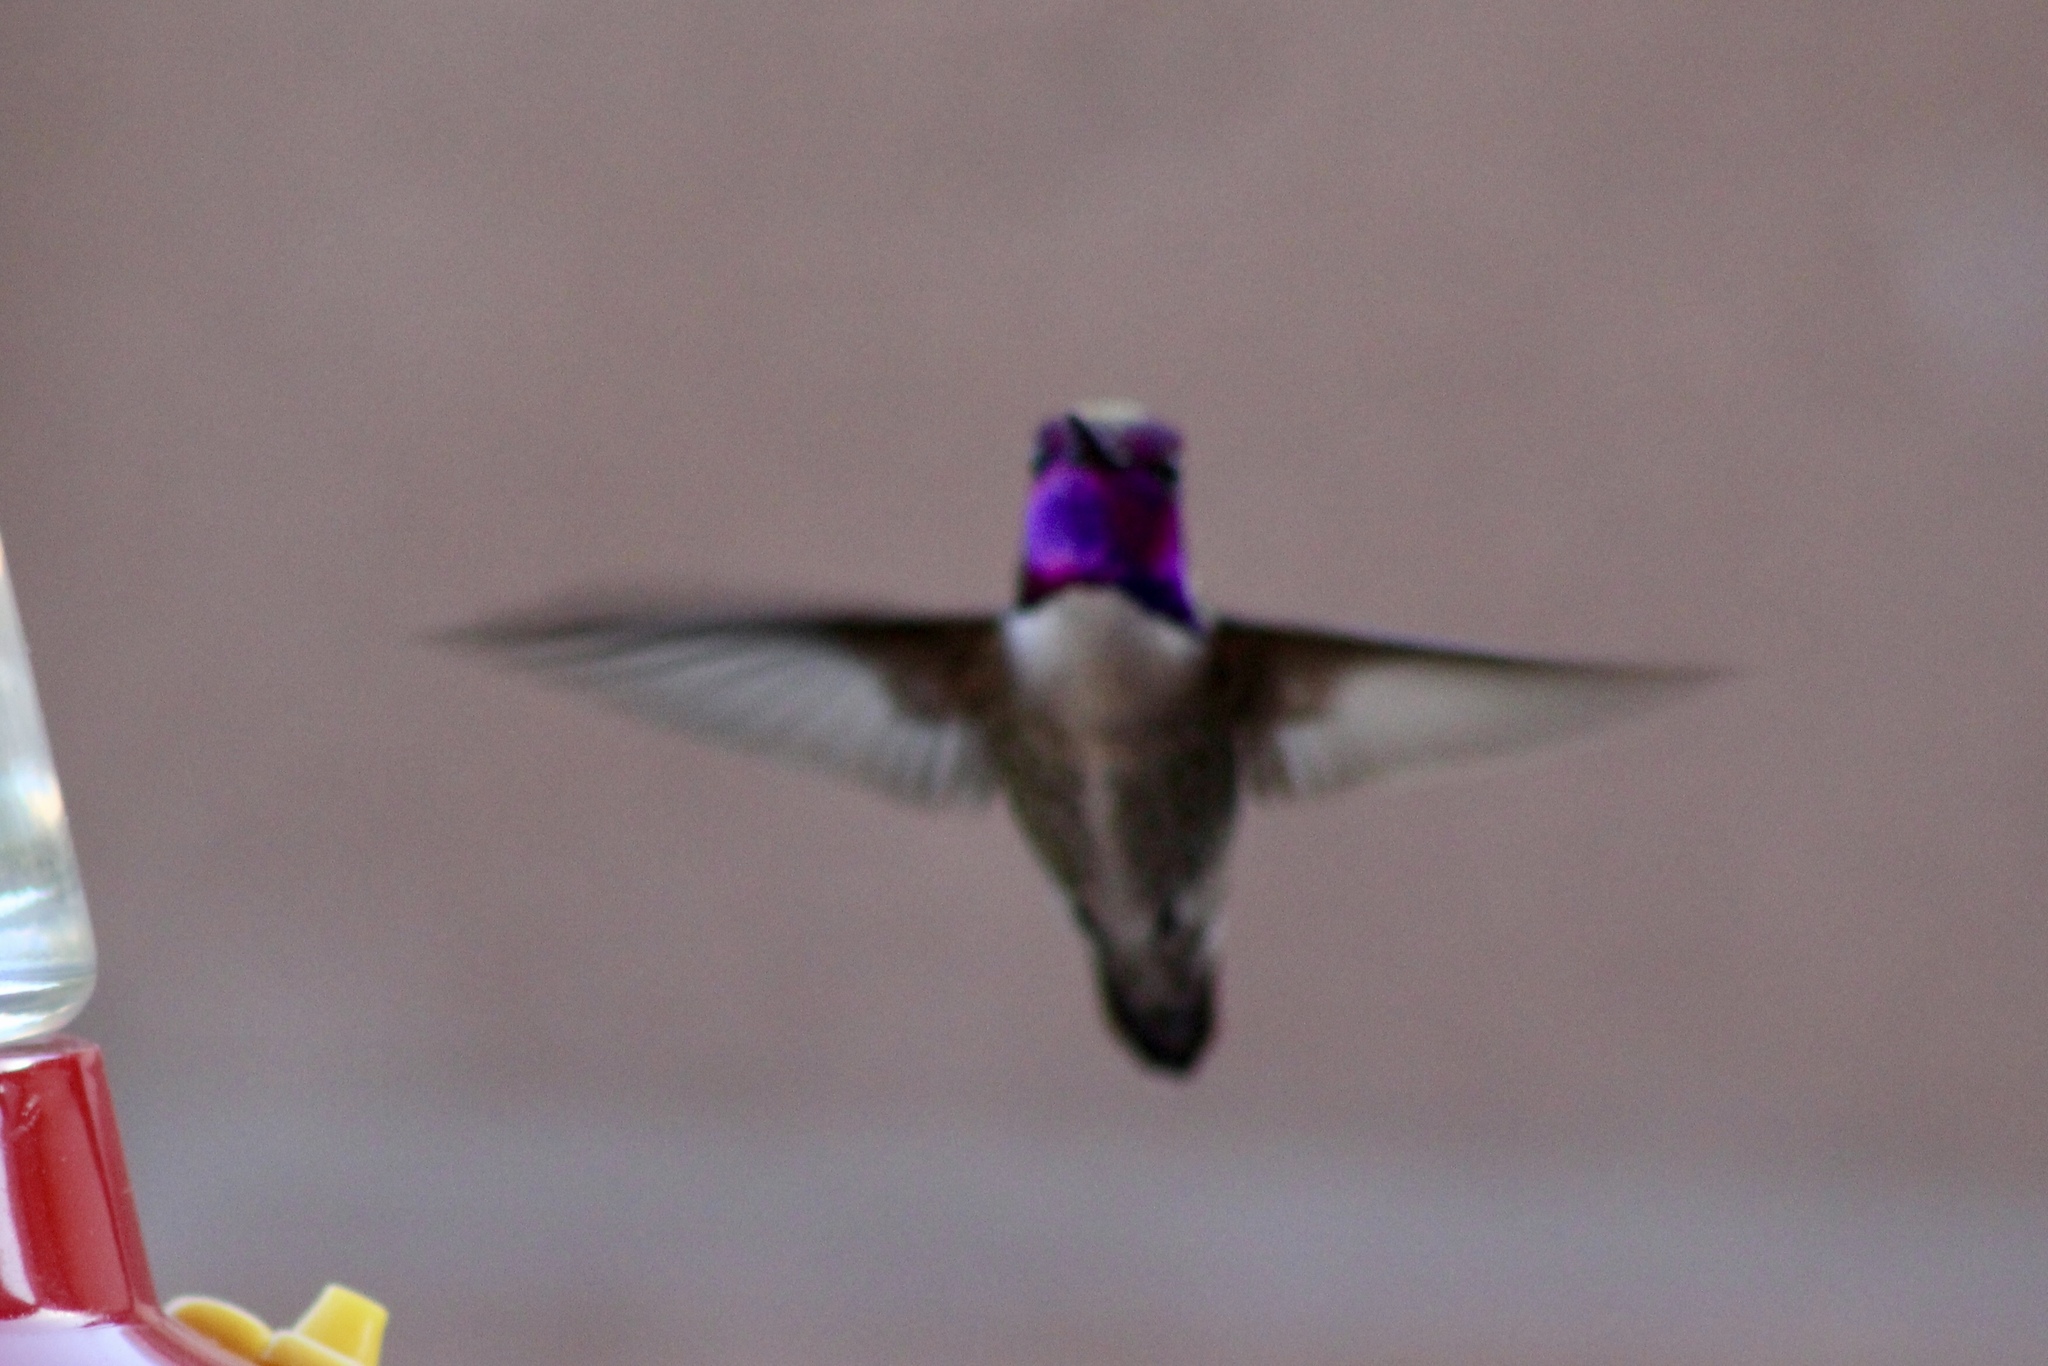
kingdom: Animalia
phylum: Chordata
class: Aves
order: Apodiformes
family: Trochilidae
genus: Calypte
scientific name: Calypte costae
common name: Costa's hummingbird
